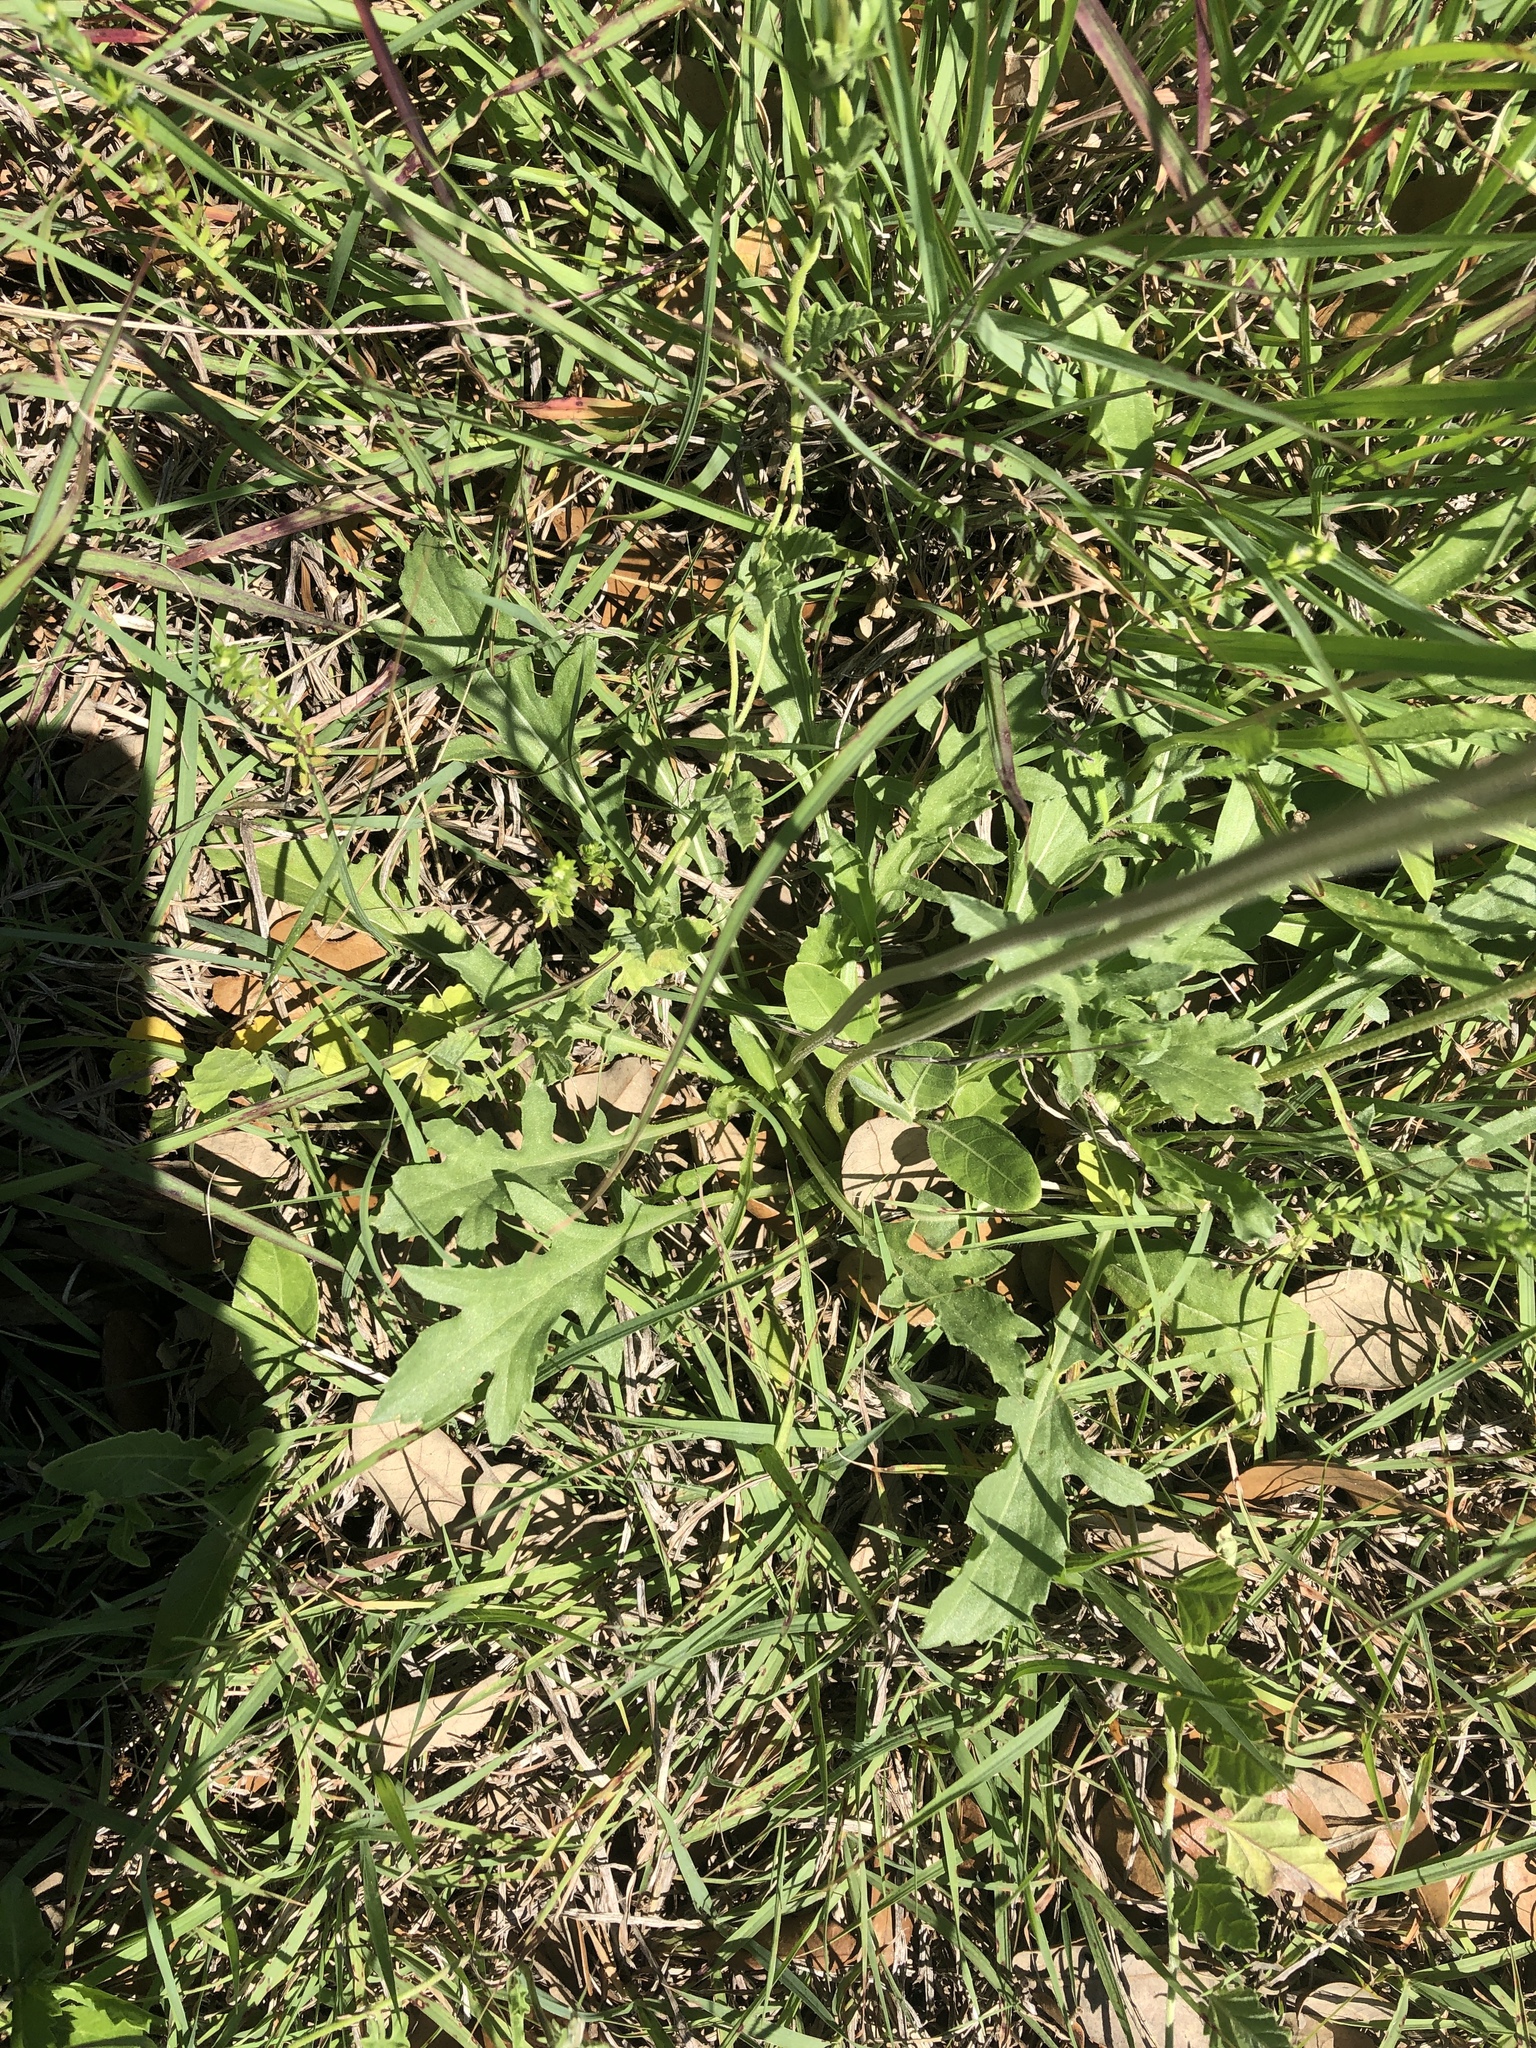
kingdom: Plantae
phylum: Tracheophyta
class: Magnoliopsida
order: Asterales
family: Asteraceae
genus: Gaillardia
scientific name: Gaillardia suavis
